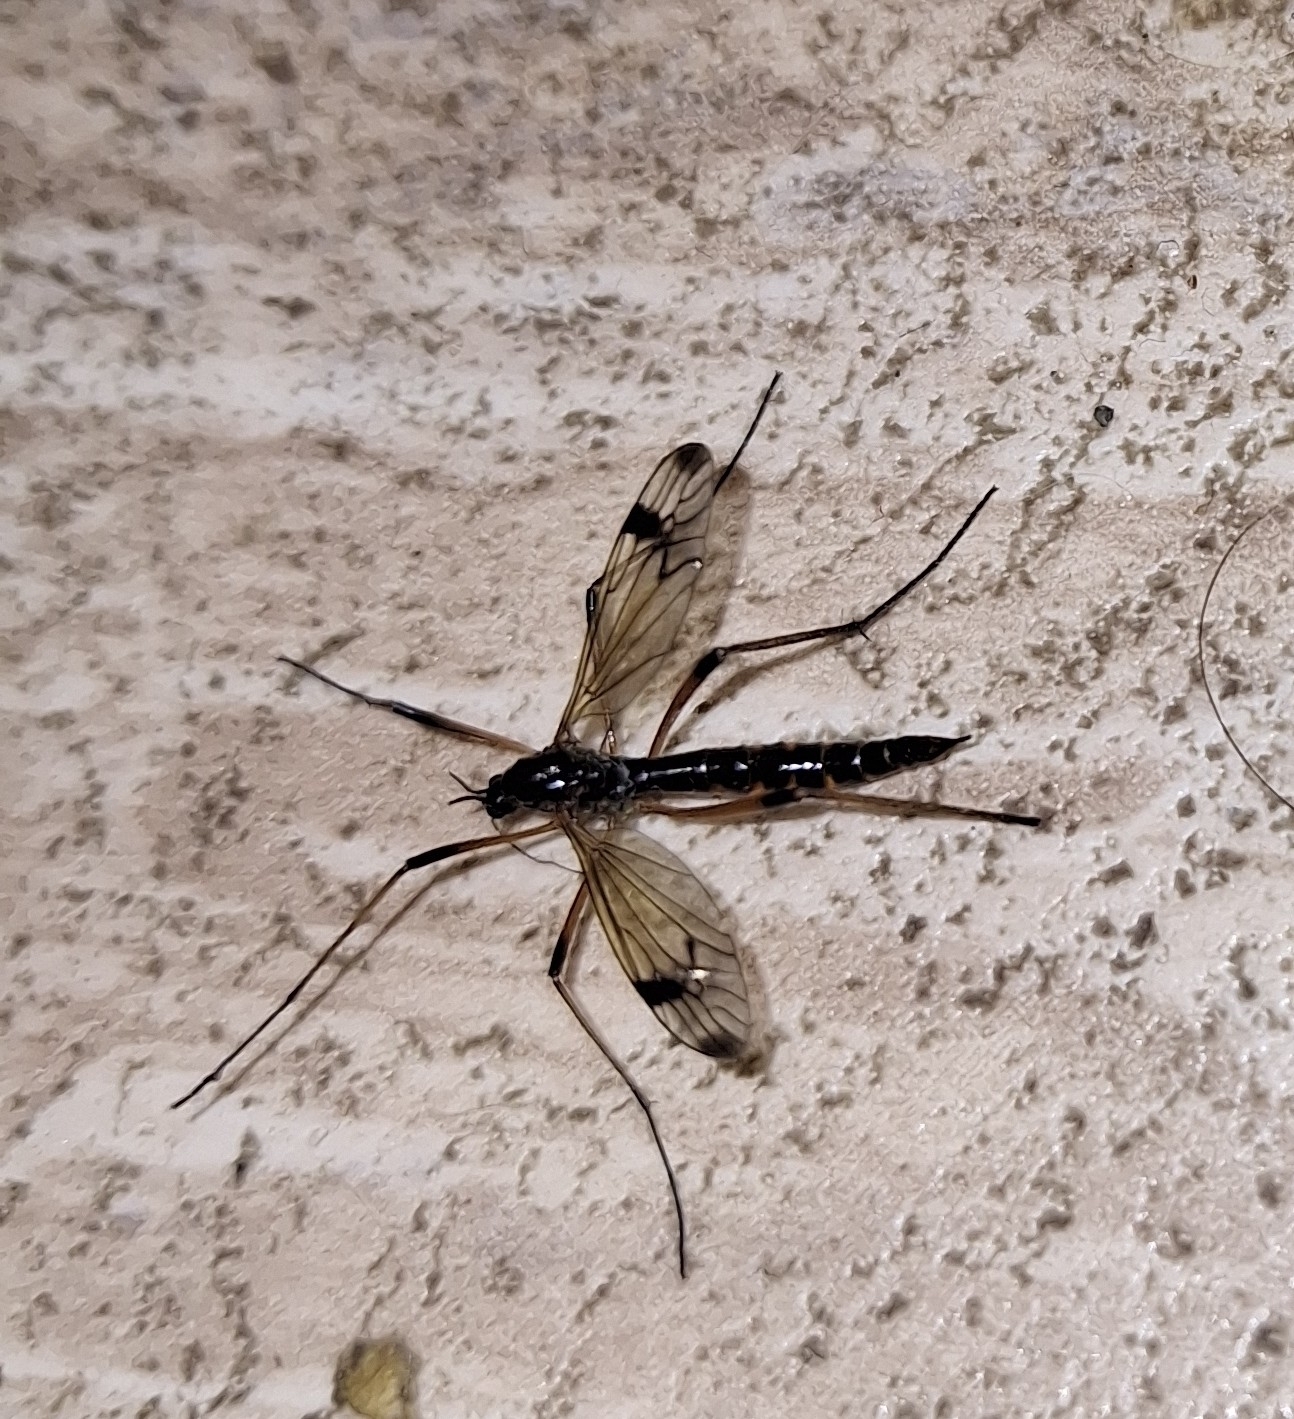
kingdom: Animalia
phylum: Arthropoda
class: Insecta
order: Diptera
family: Tipulidae
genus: Dictenidia
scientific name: Dictenidia bimaculata
